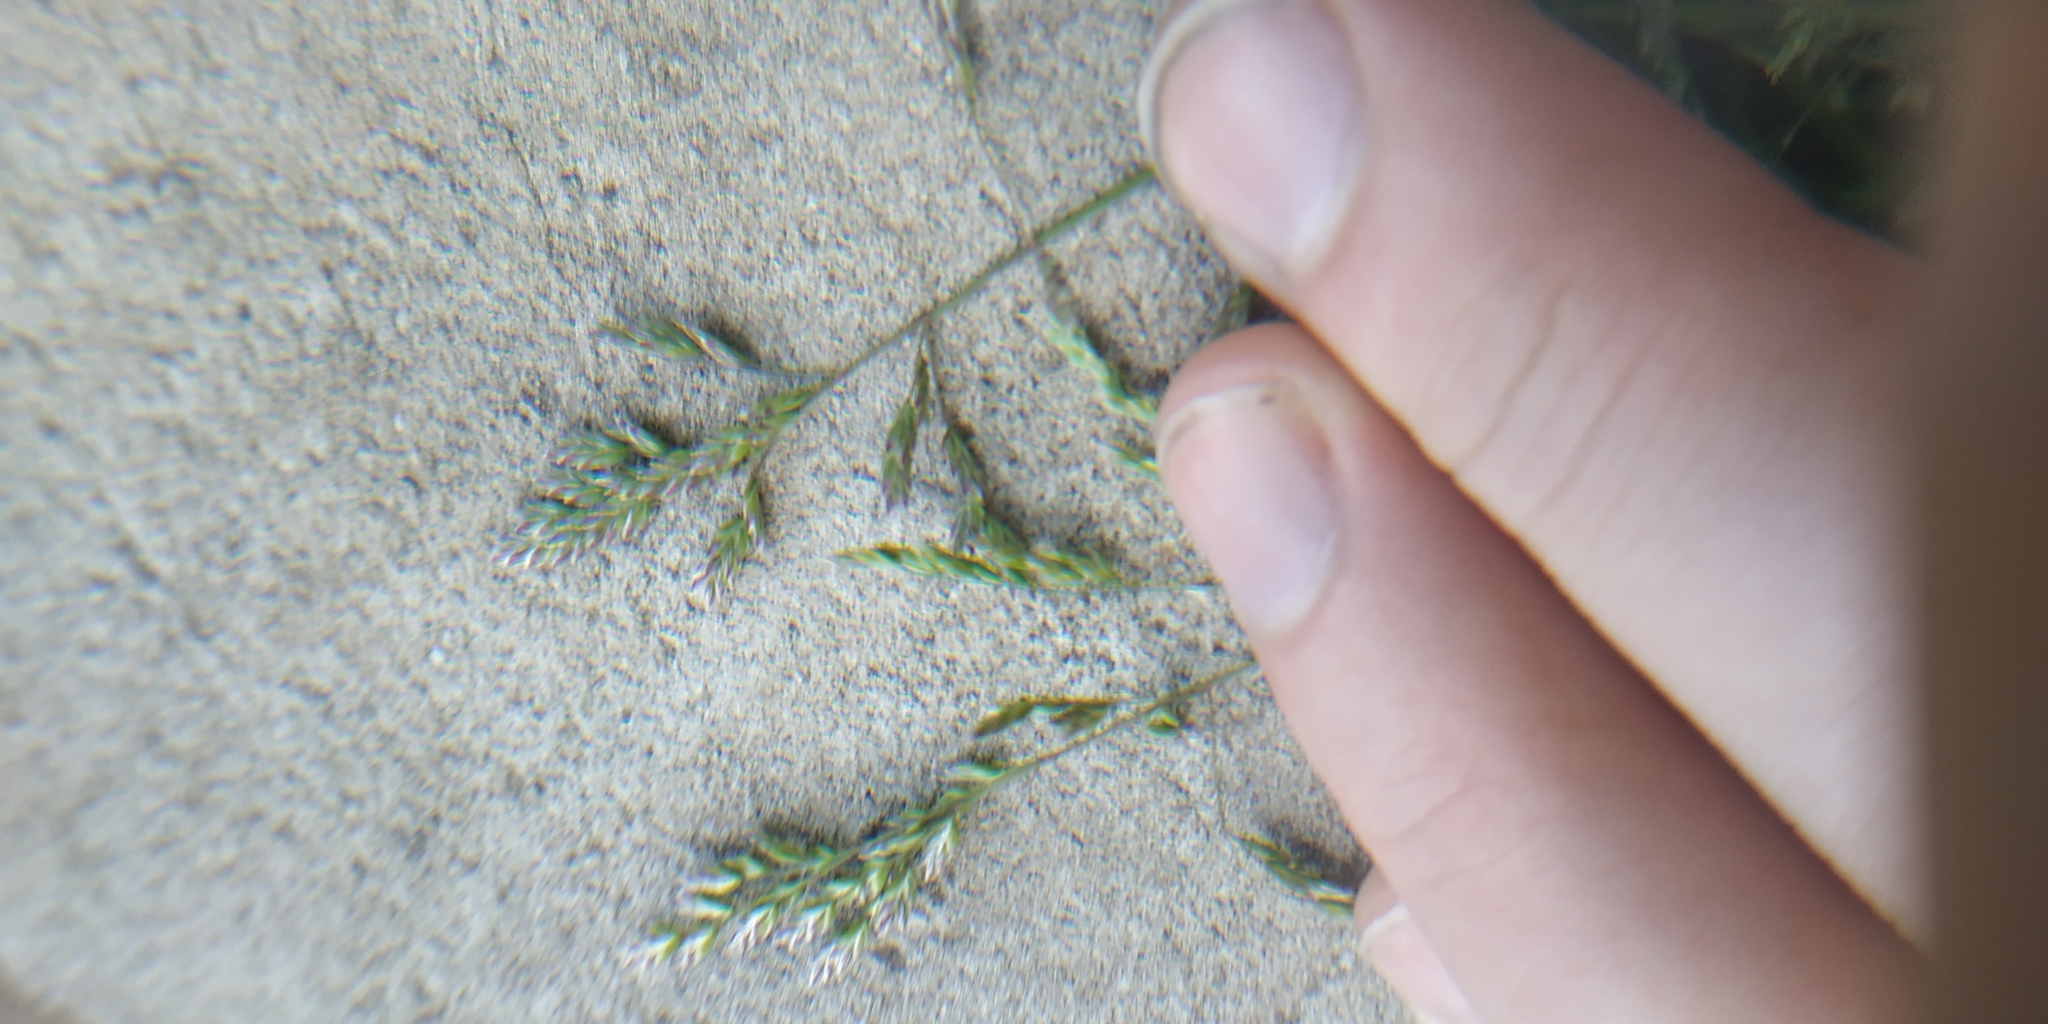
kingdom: Plantae
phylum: Tracheophyta
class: Liliopsida
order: Poales
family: Poaceae
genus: Poa
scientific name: Poa annua
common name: Annual bluegrass
